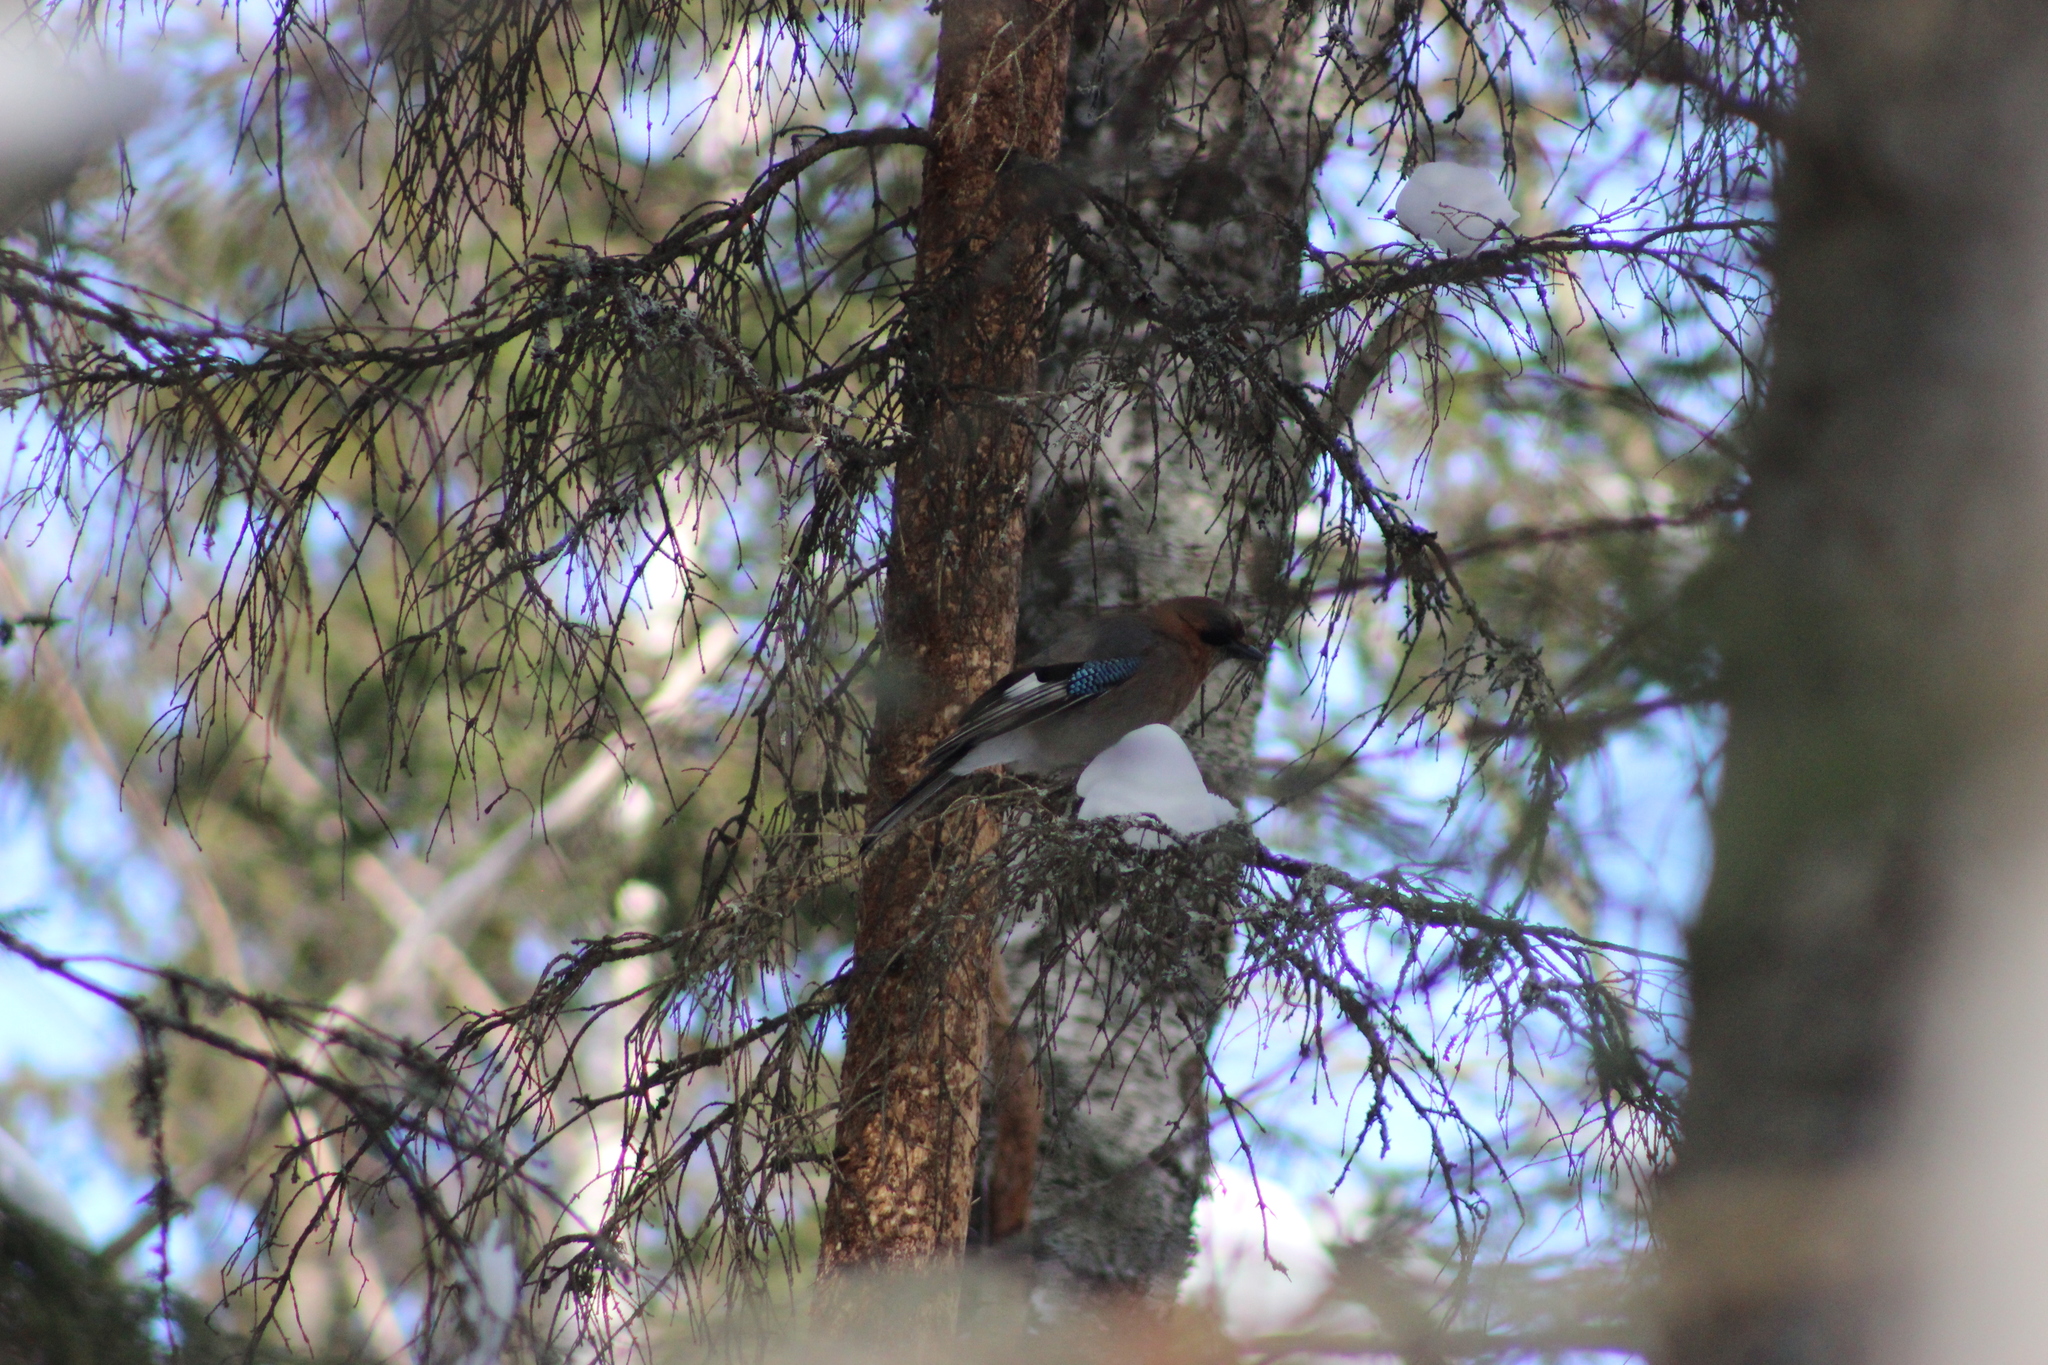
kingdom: Animalia
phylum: Chordata
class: Aves
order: Passeriformes
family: Corvidae
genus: Garrulus
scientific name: Garrulus glandarius
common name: Eurasian jay
